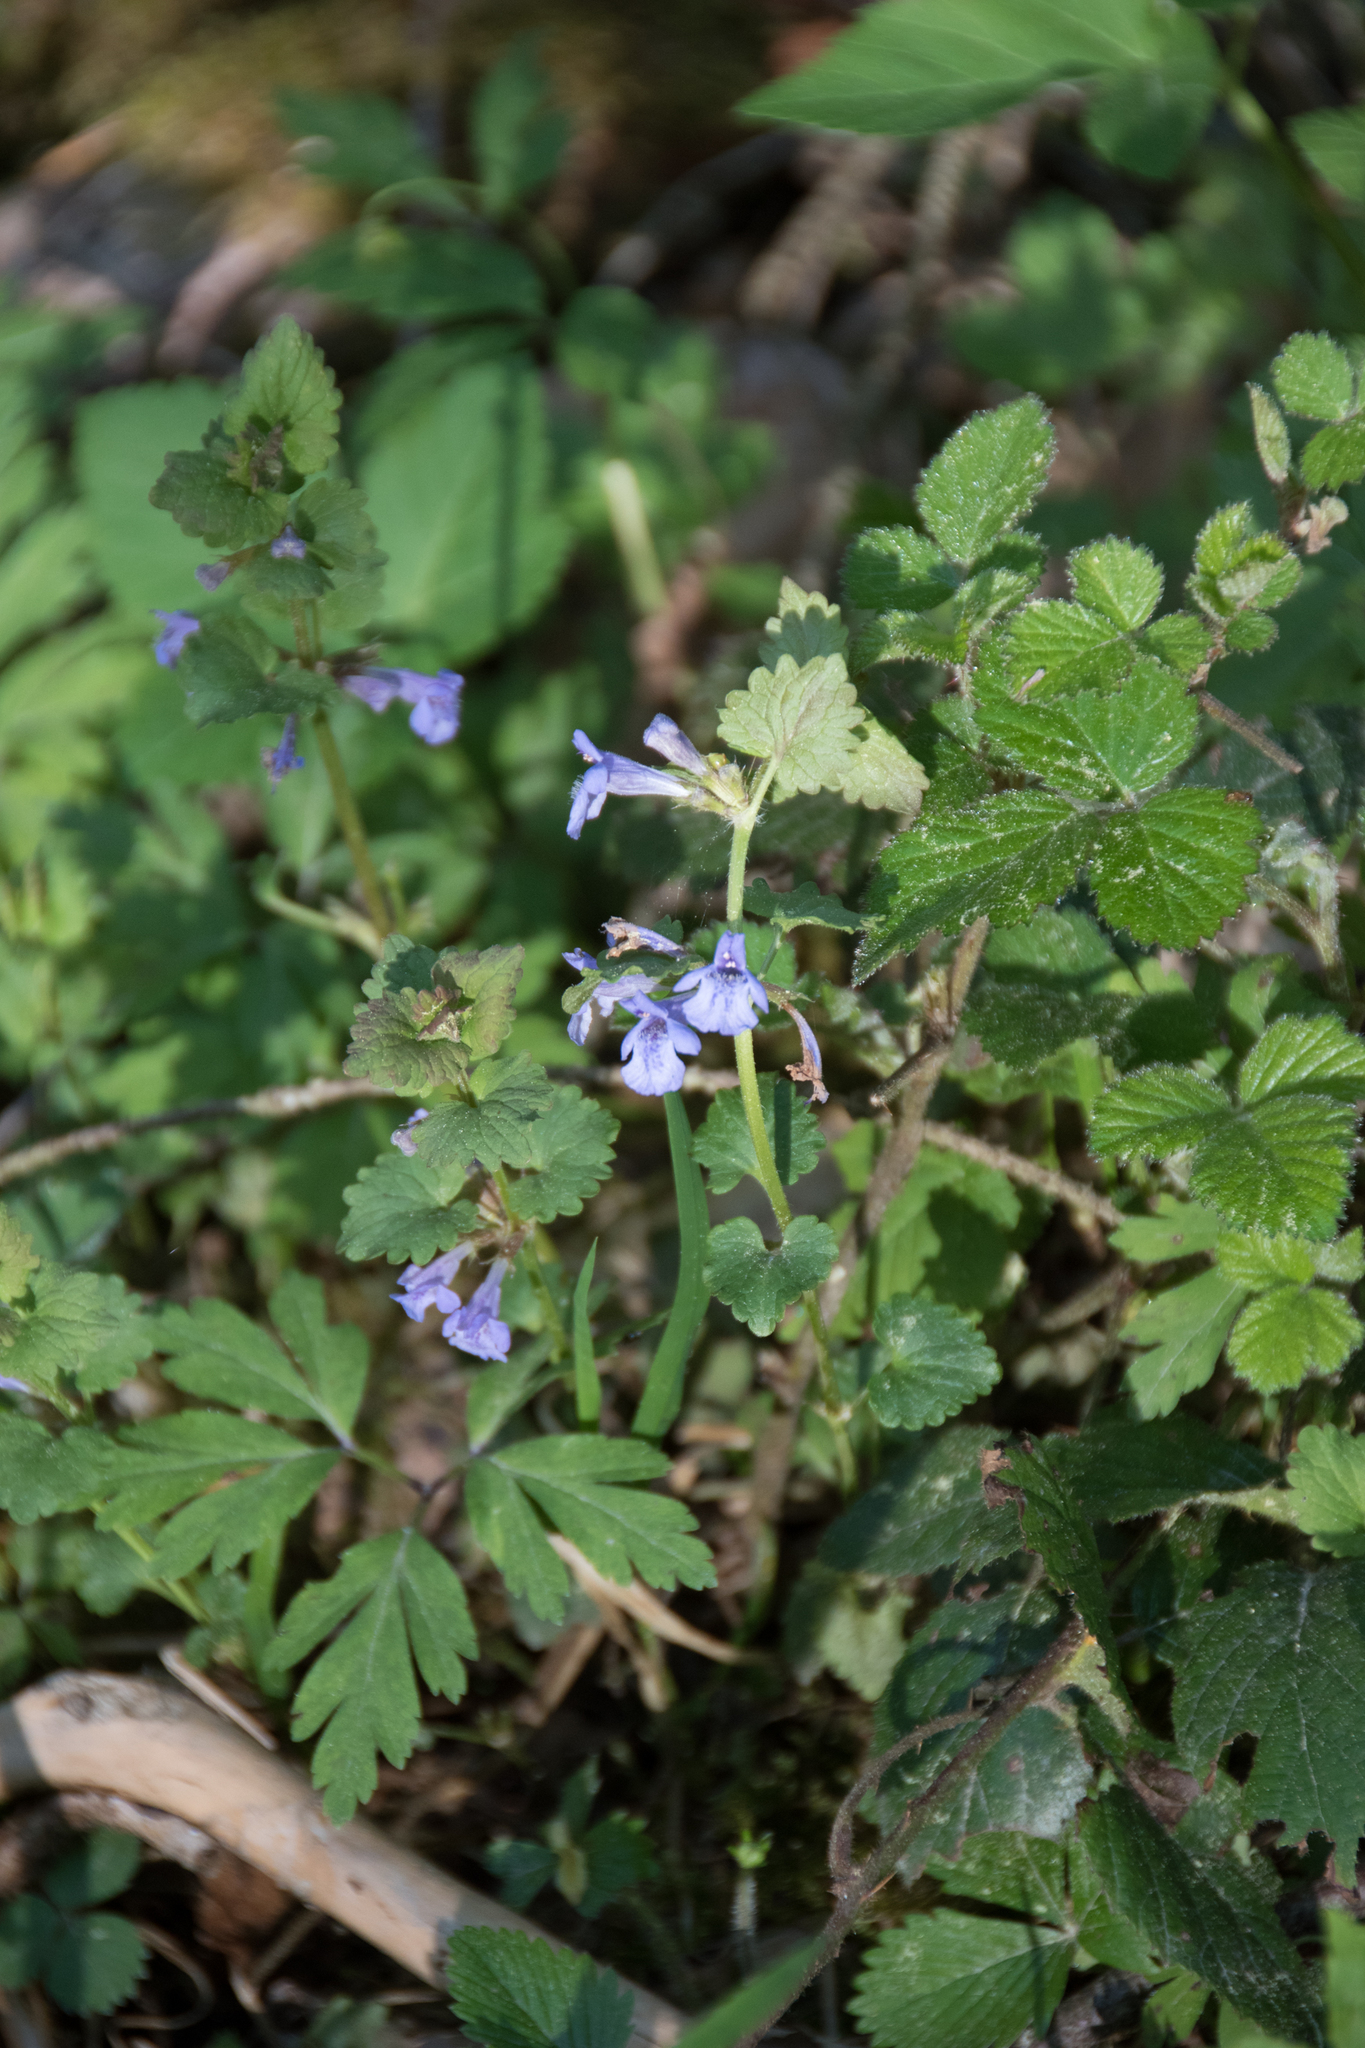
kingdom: Plantae
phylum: Tracheophyta
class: Magnoliopsida
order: Lamiales
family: Lamiaceae
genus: Glechoma
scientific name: Glechoma hederacea
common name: Ground ivy
